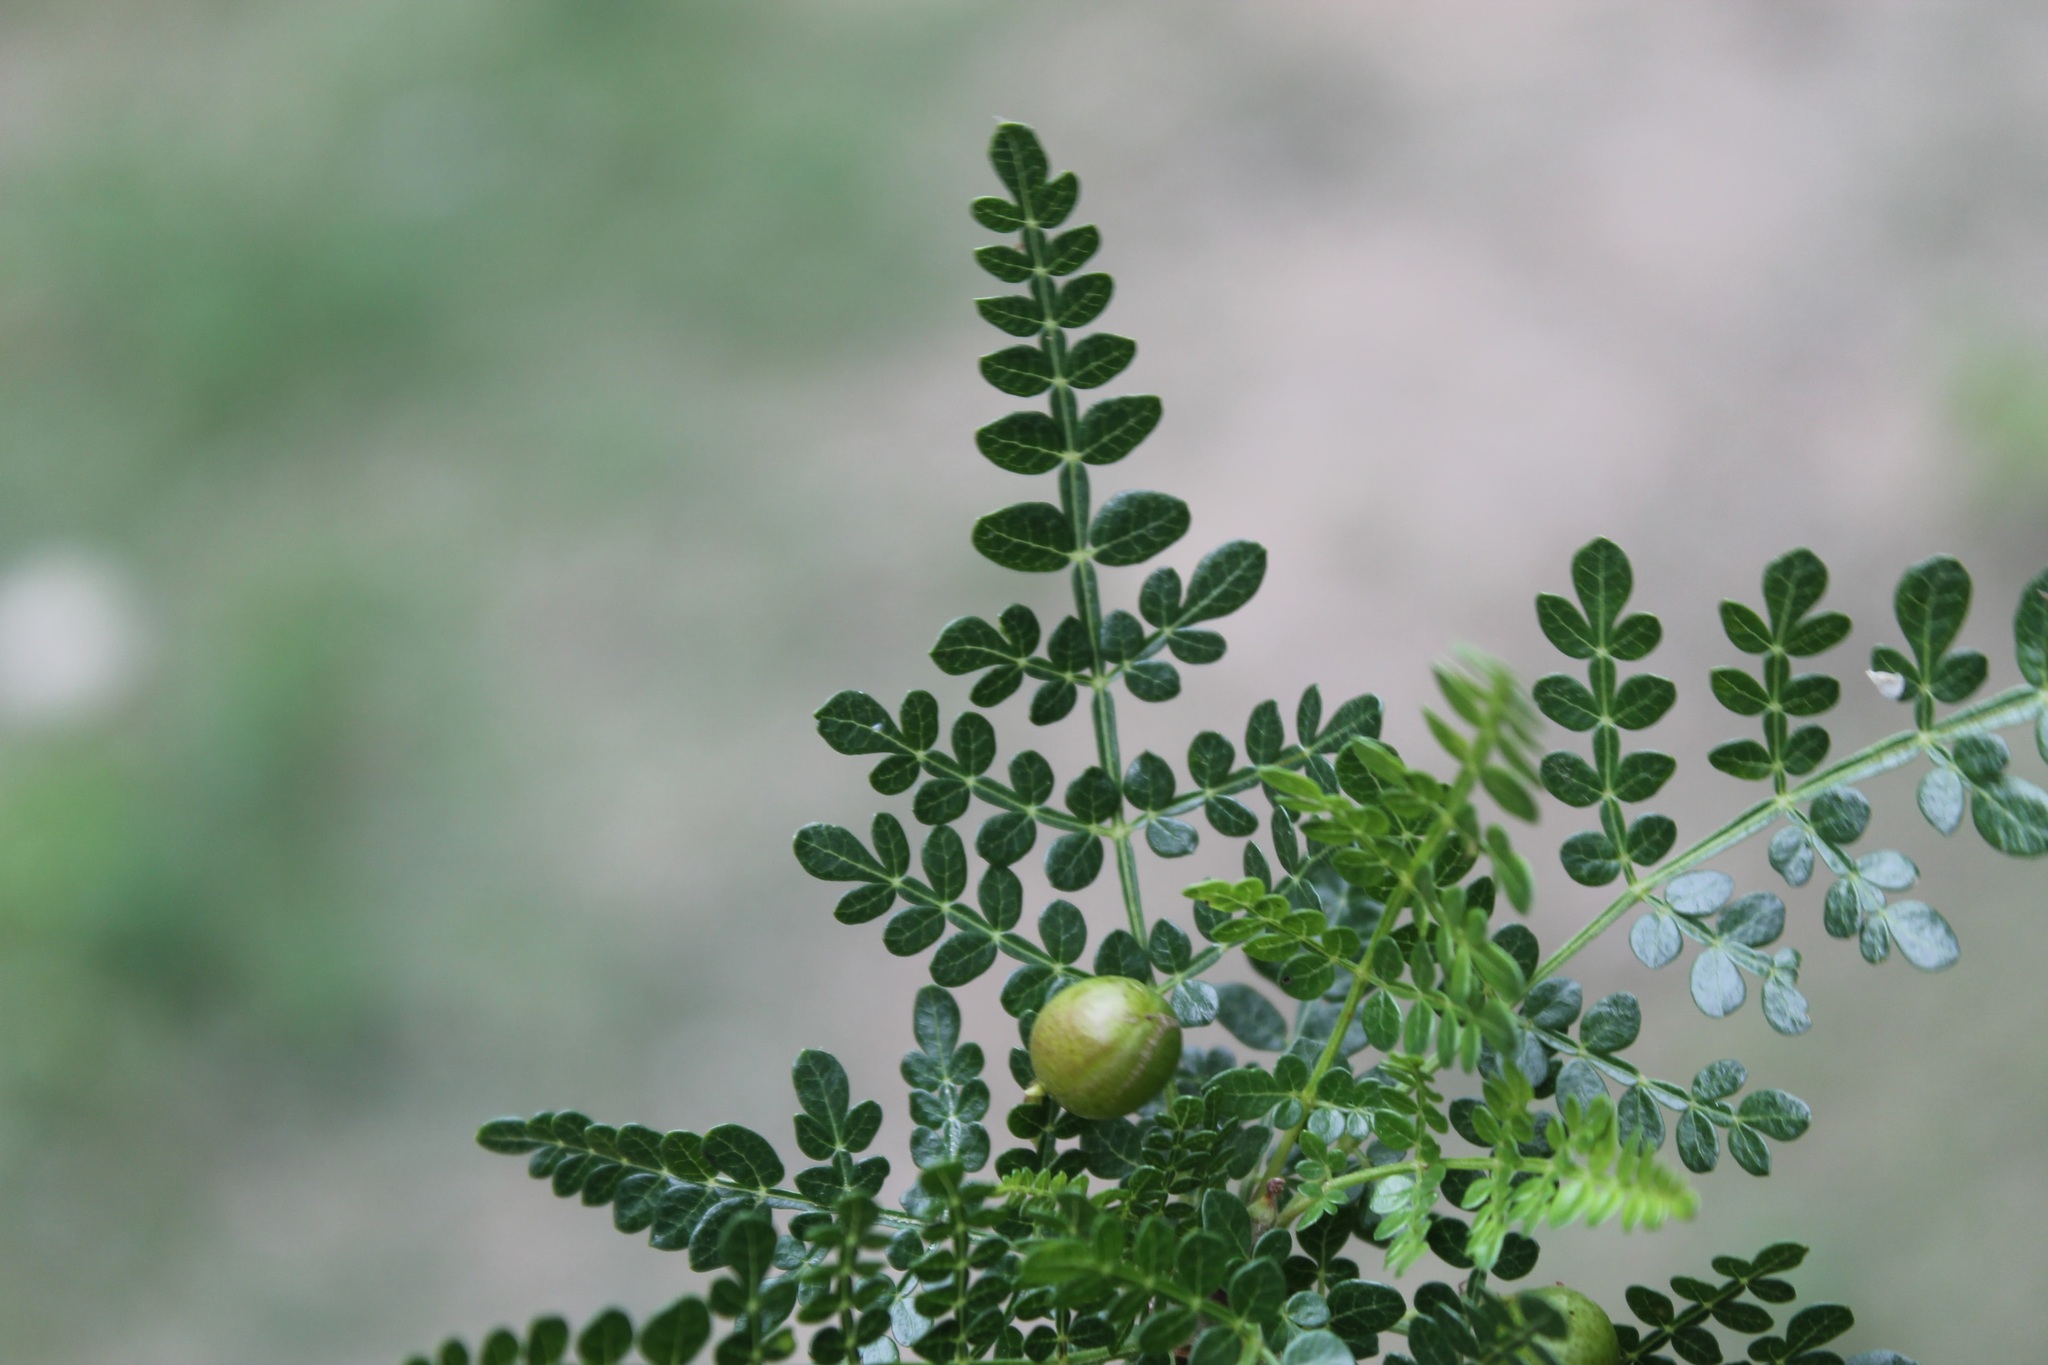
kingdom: Plantae
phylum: Tracheophyta
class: Magnoliopsida
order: Sapindales
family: Burseraceae
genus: Bursera
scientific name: Bursera bipinnata
